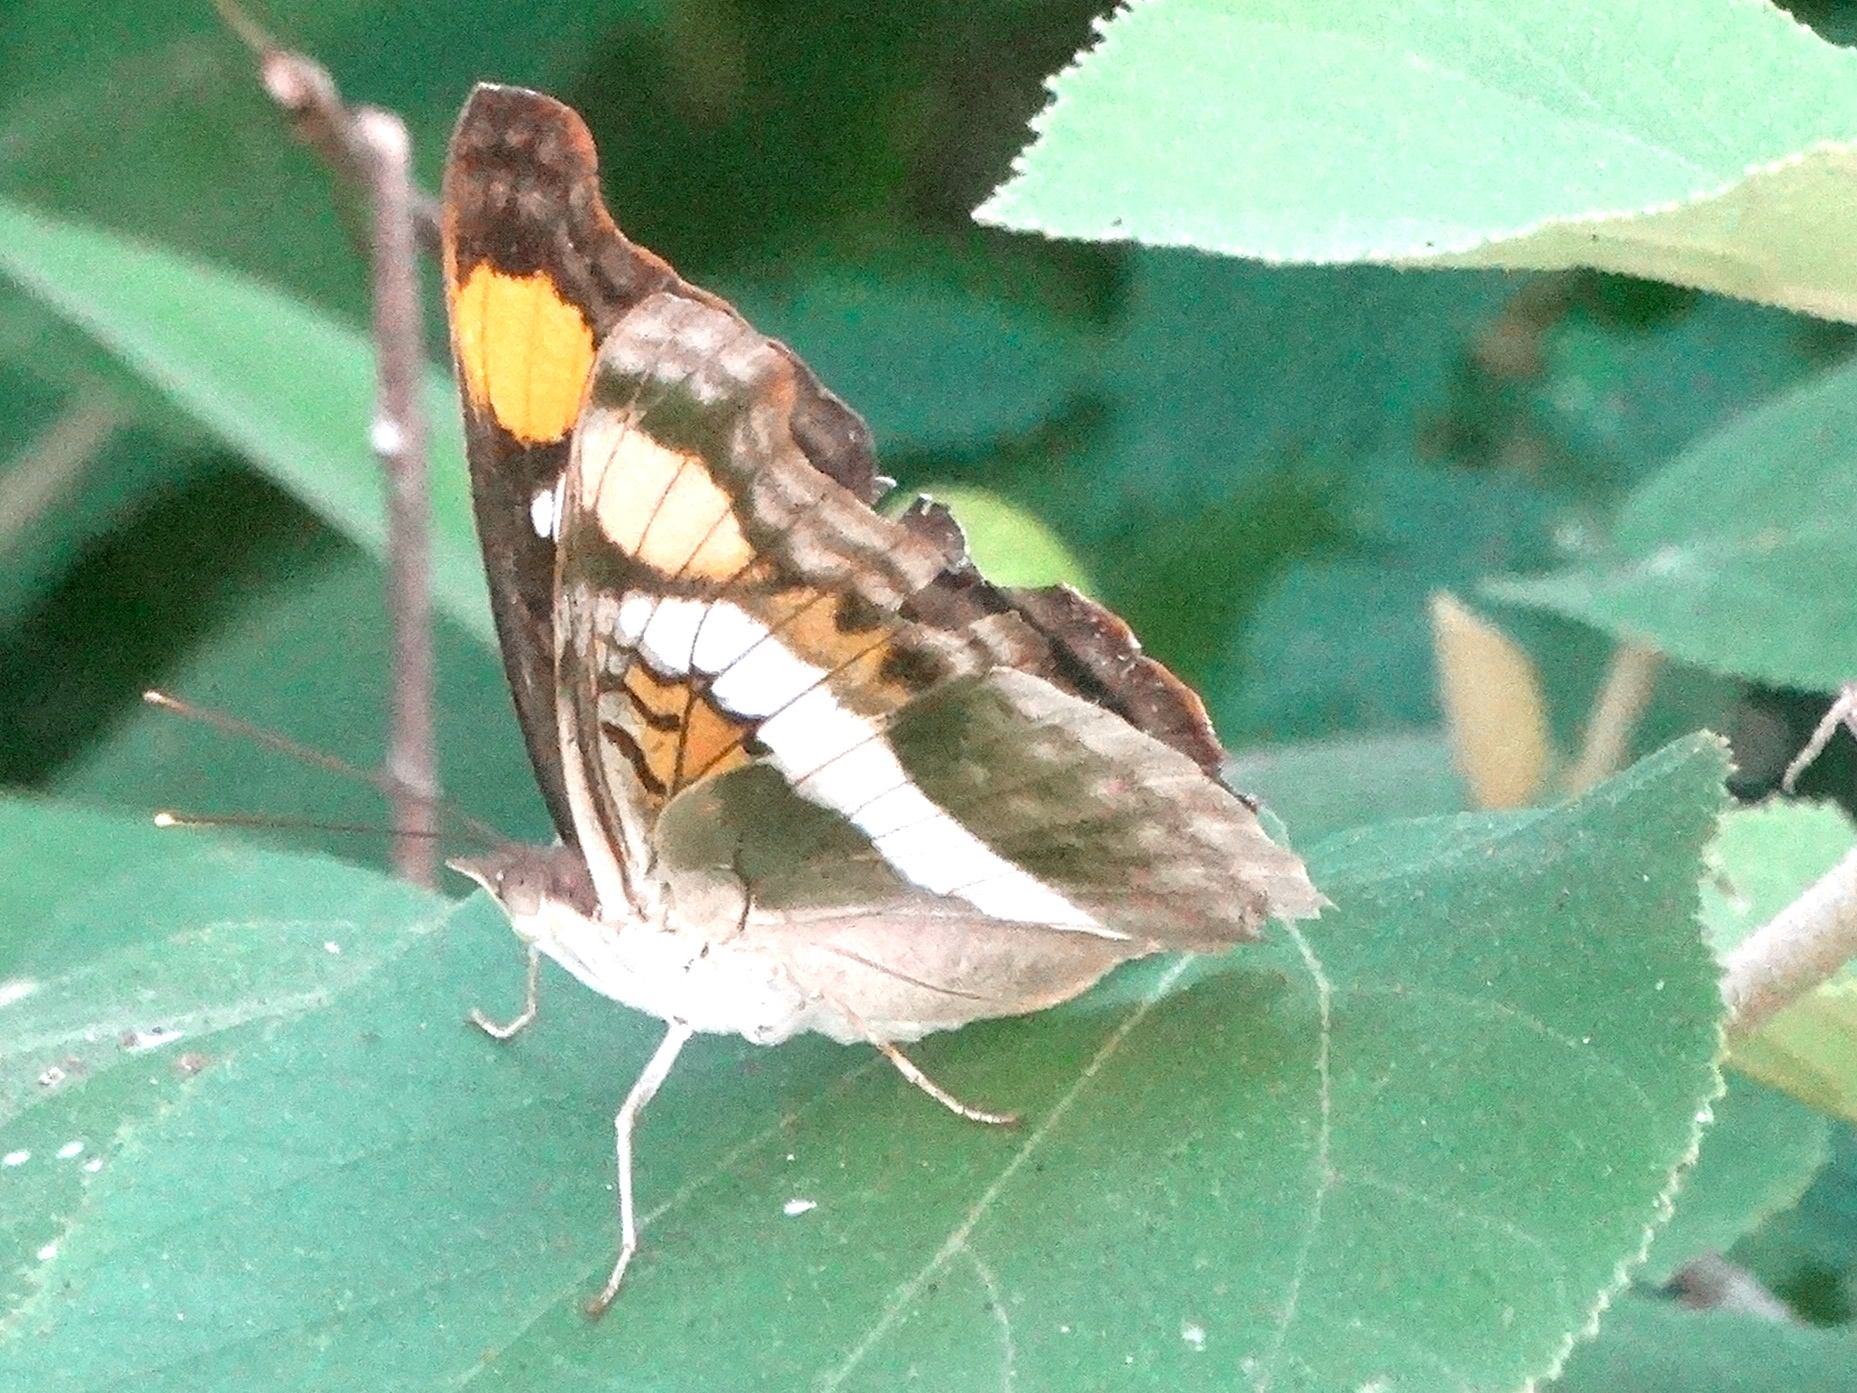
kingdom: Animalia
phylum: Arthropoda
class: Insecta
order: Lepidoptera
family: Nymphalidae
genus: Doxocopa
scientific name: Doxocopa laure
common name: Silver emperor
